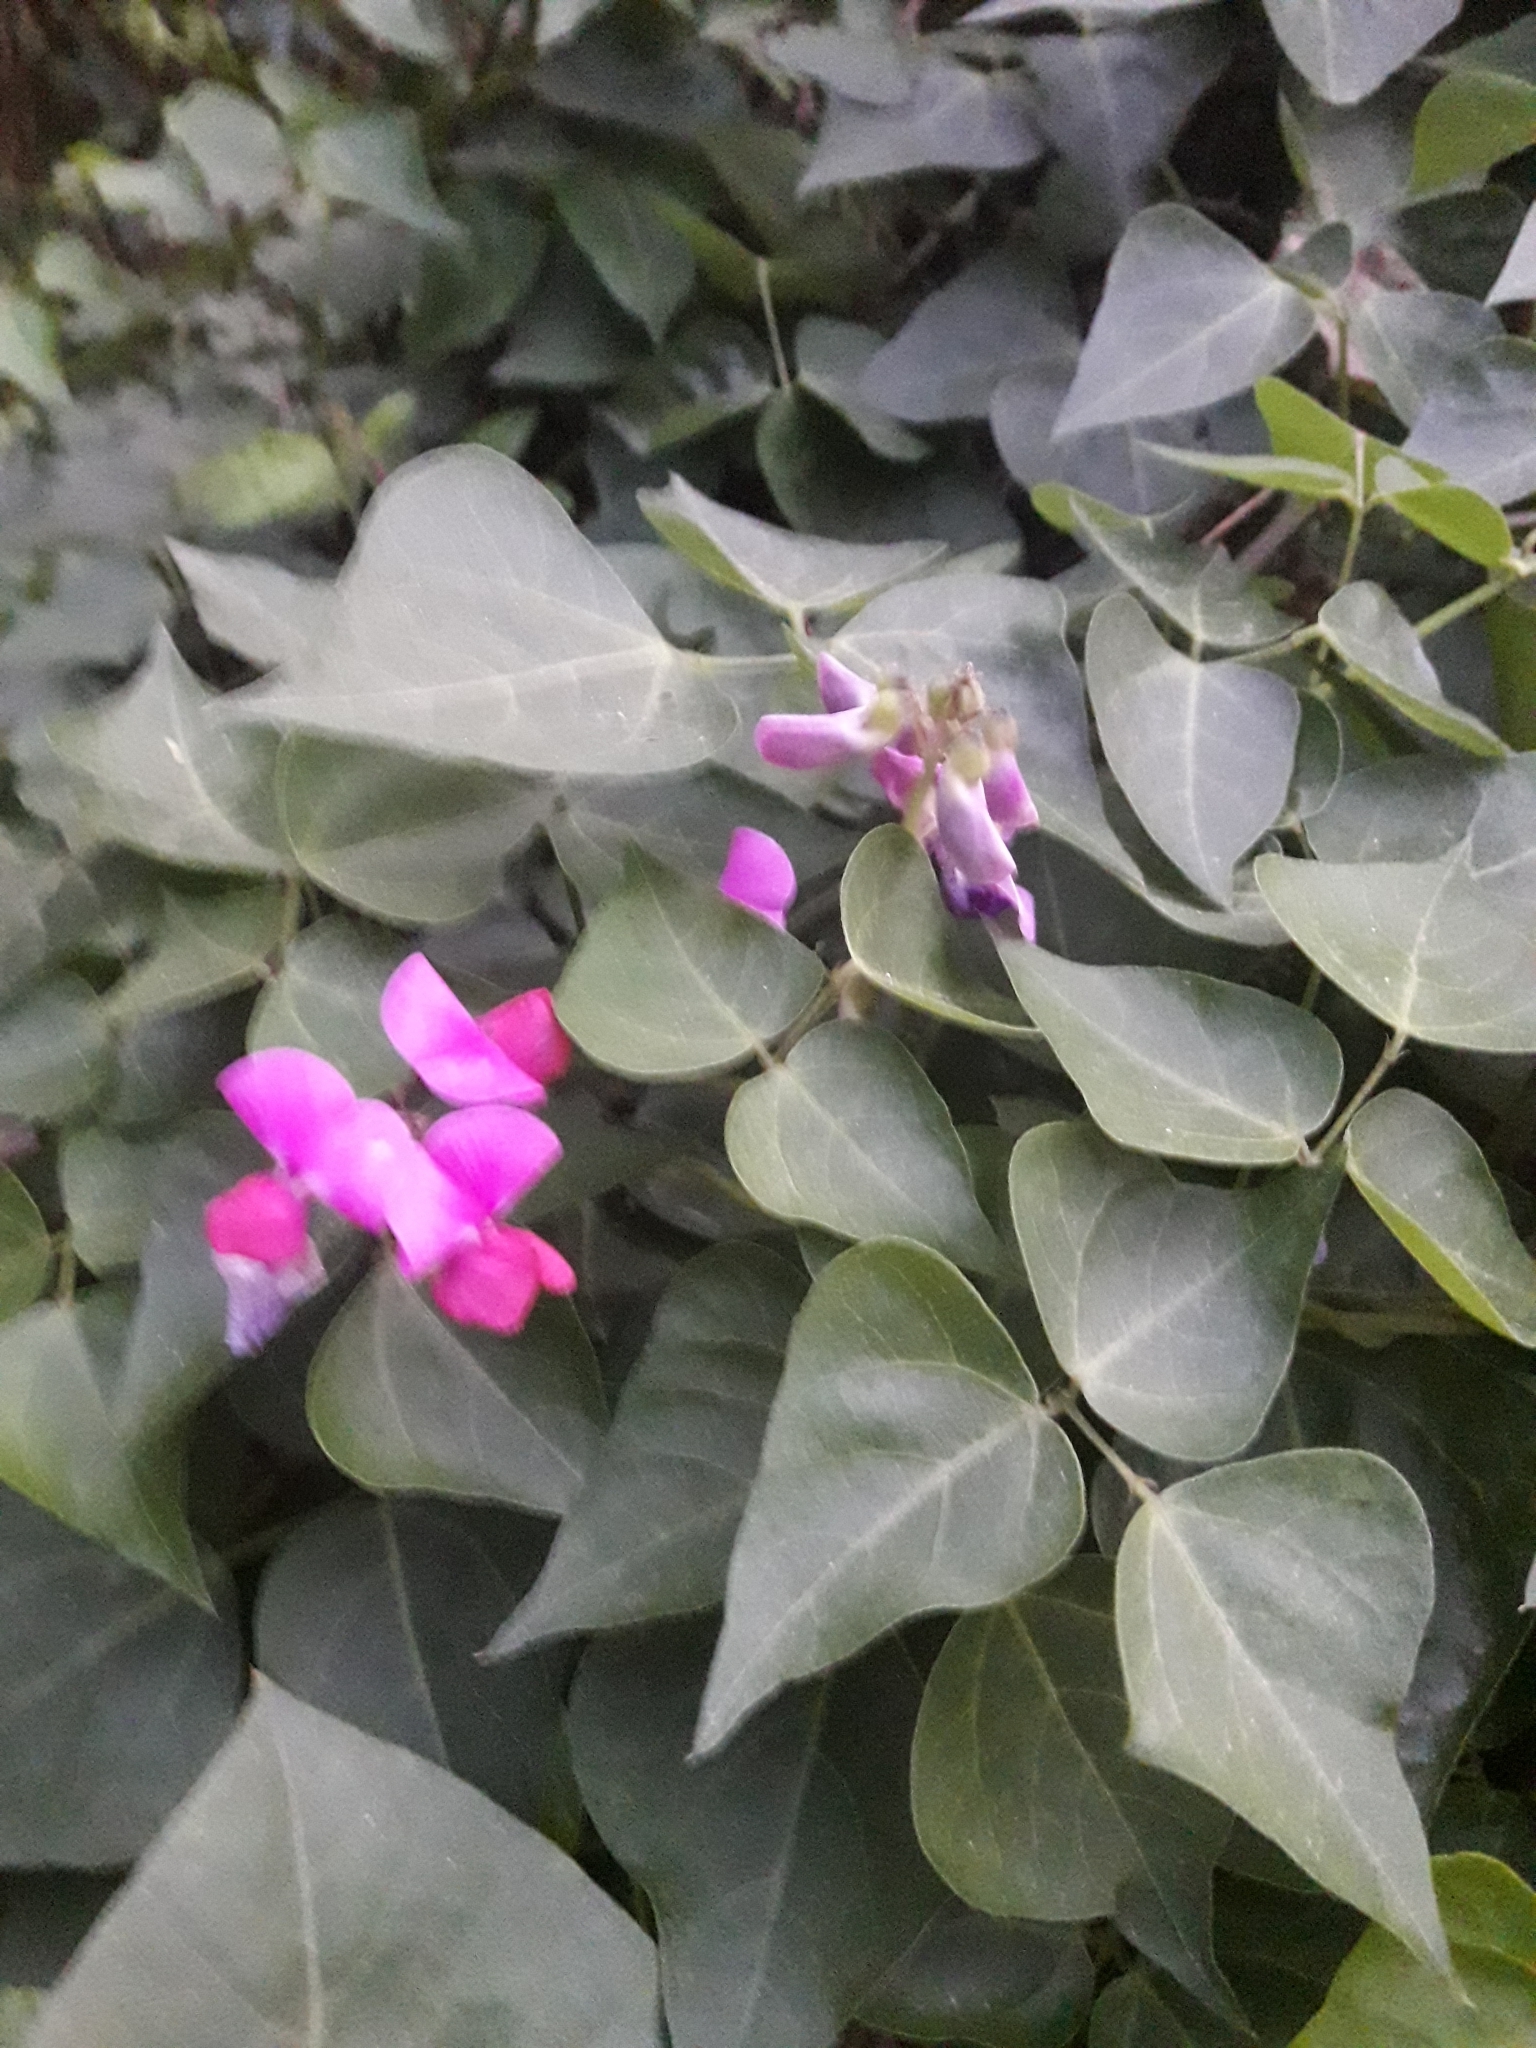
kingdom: Plantae
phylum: Tracheophyta
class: Magnoliopsida
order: Fabales
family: Fabaceae
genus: Dipogon
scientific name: Dipogon lignosus
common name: Okie bean
